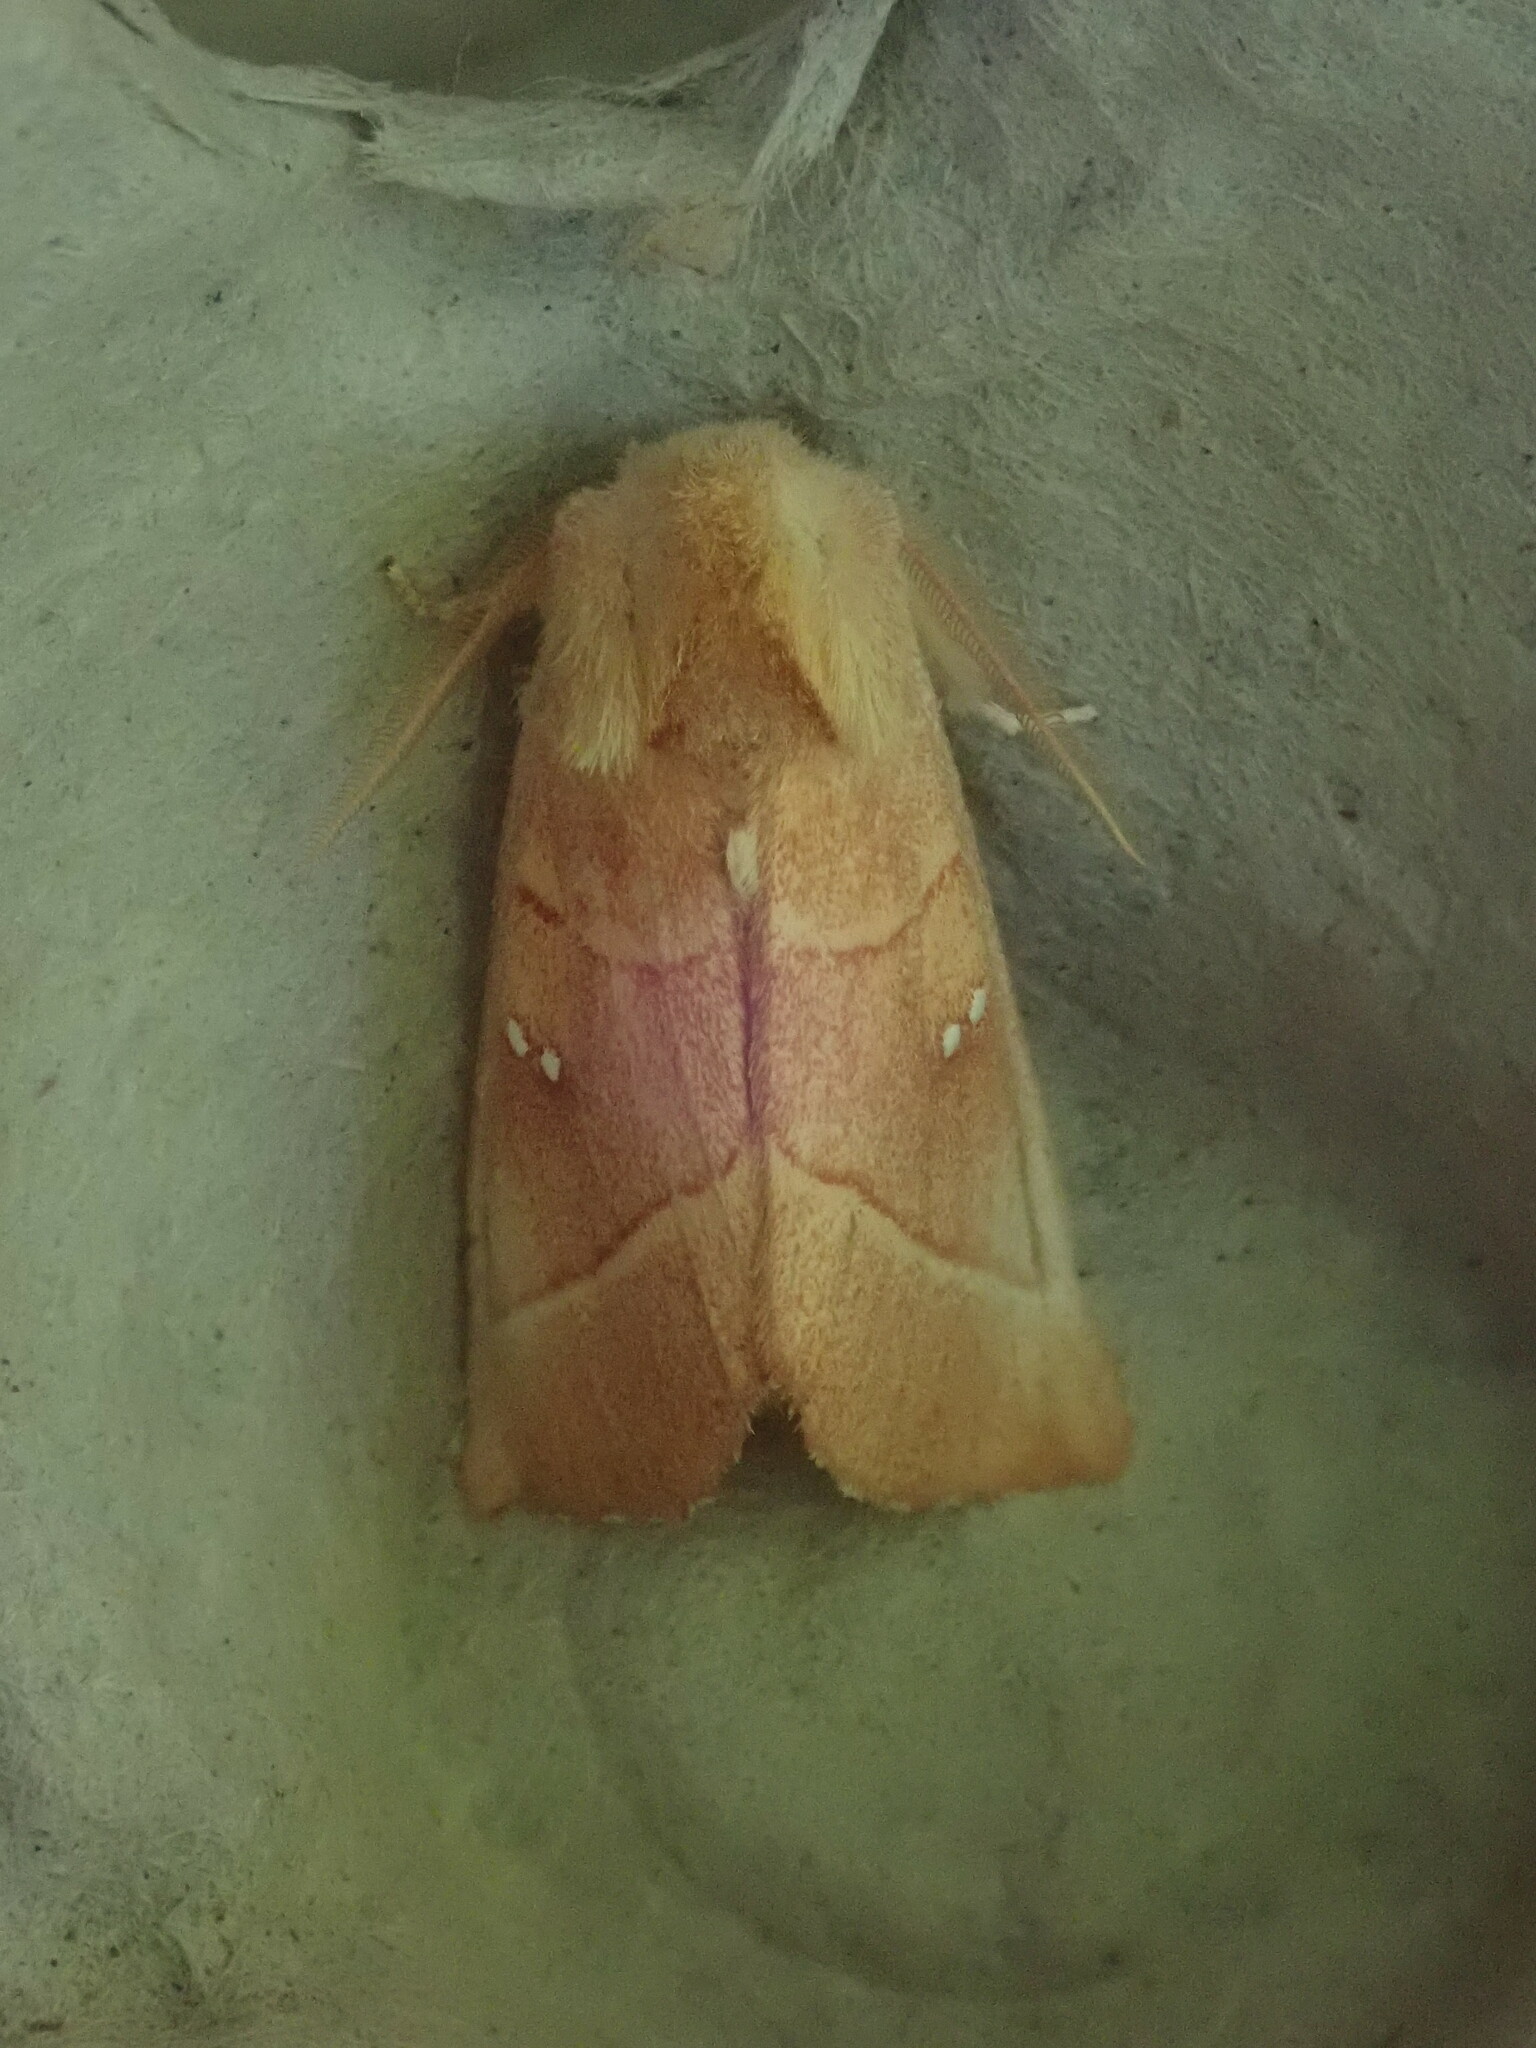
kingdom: Animalia
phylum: Arthropoda
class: Insecta
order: Lepidoptera
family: Notodontidae
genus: Nadata
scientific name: Nadata gibbosa
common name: White-dotted prominent
